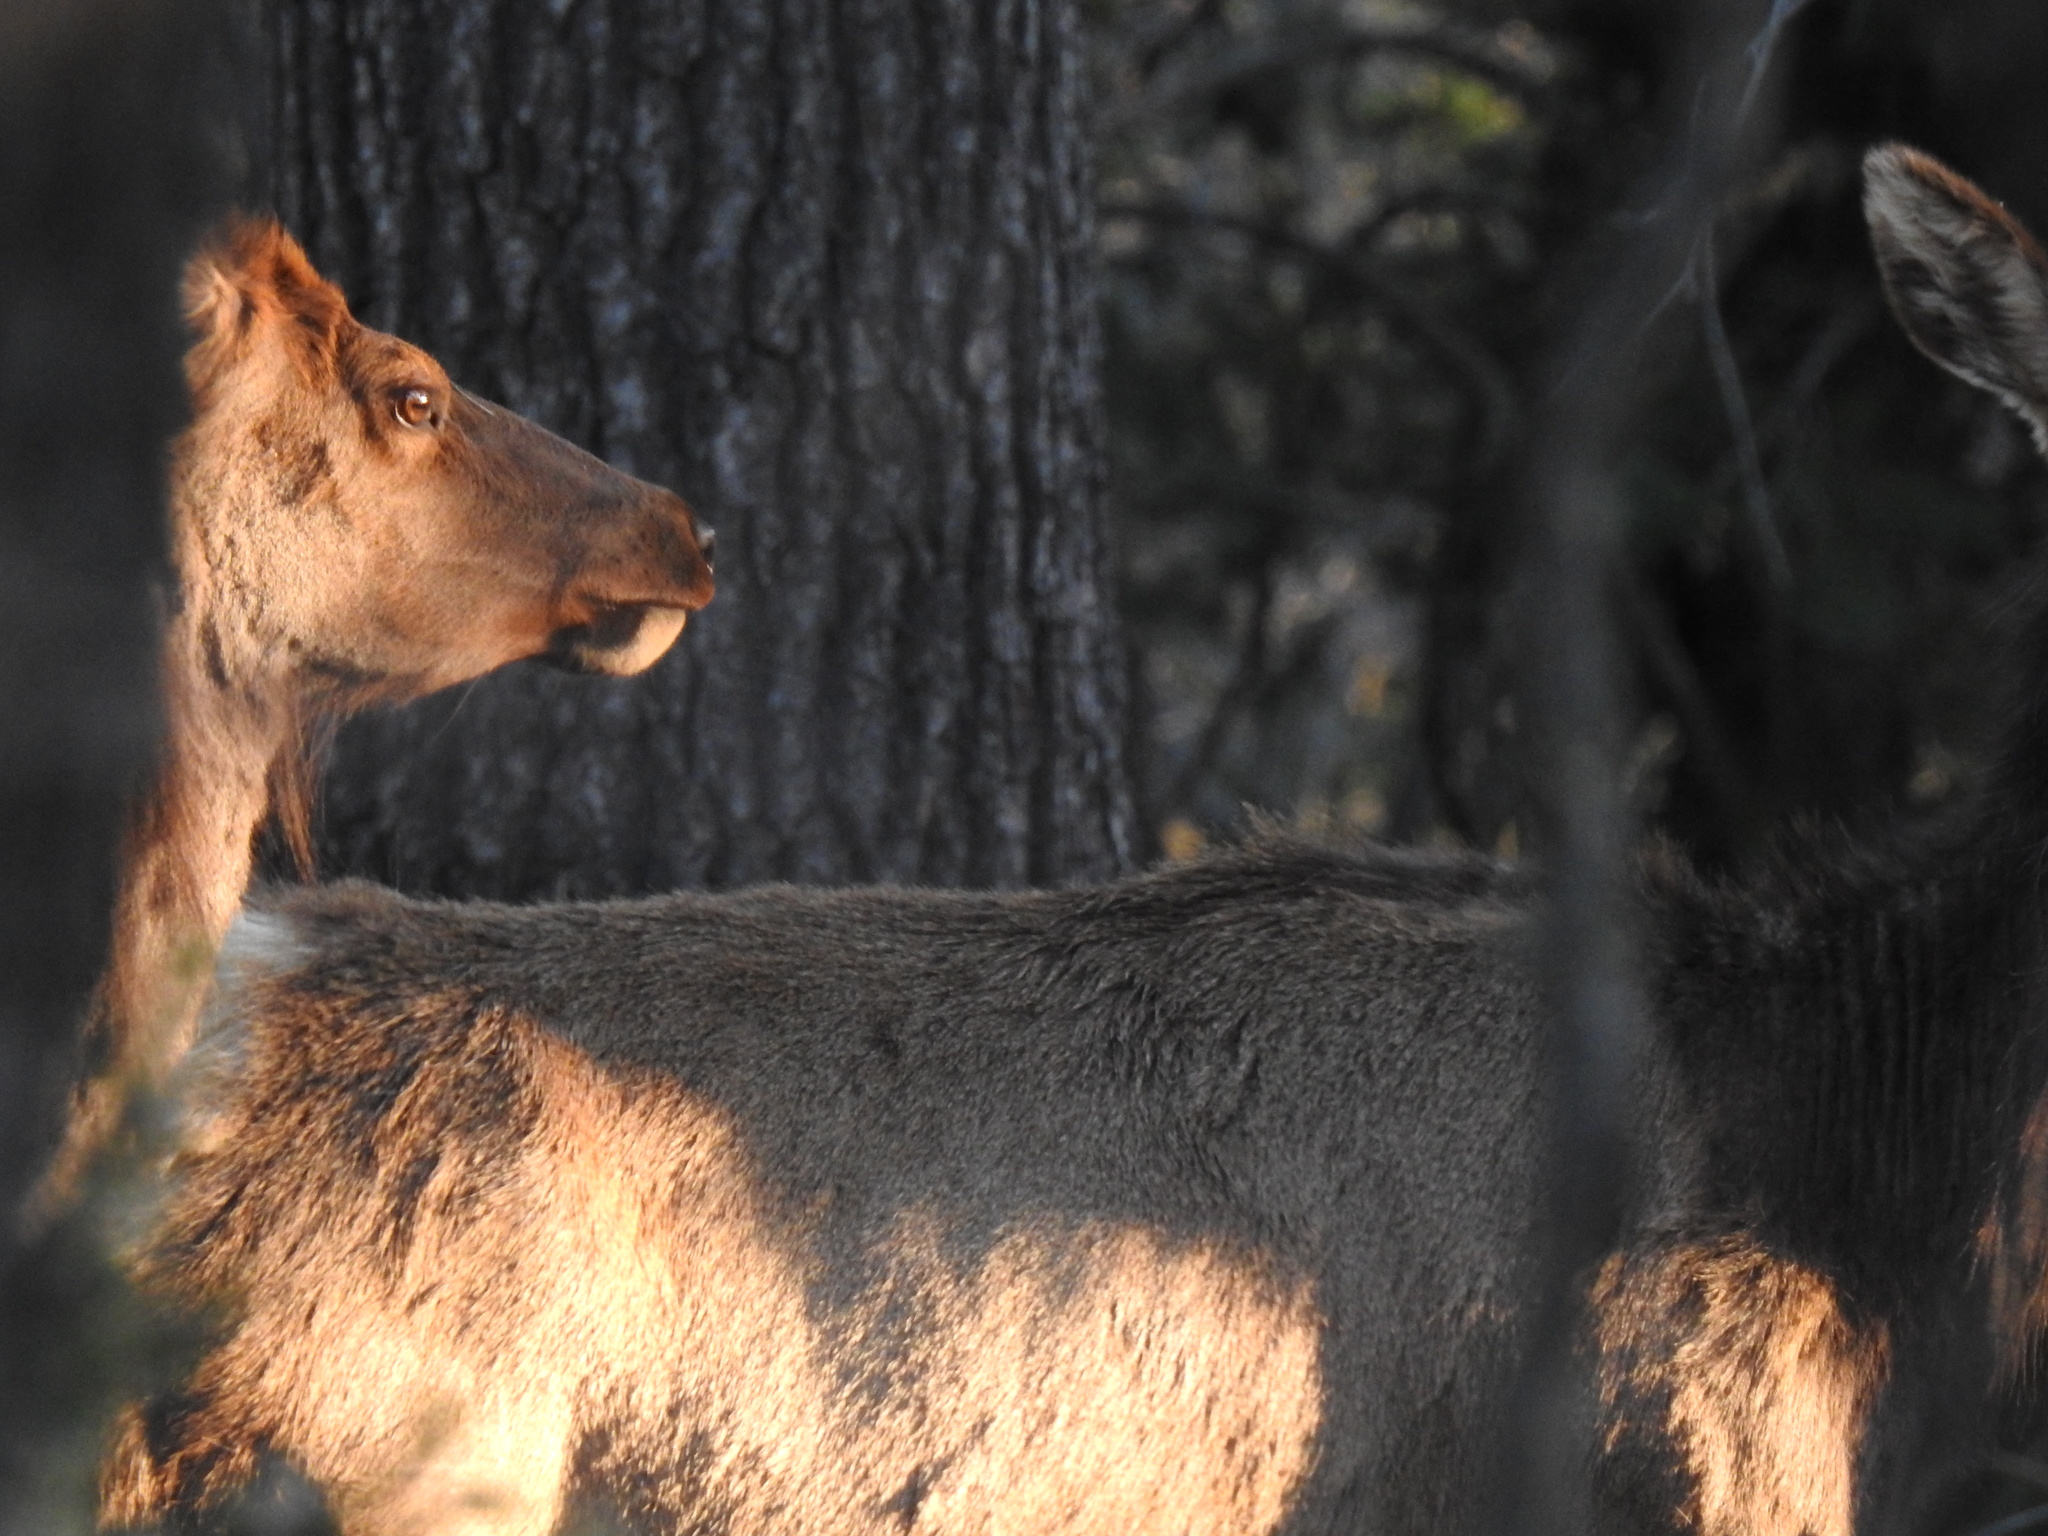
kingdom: Animalia
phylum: Chordata
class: Mammalia
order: Artiodactyla
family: Cervidae
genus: Cervus
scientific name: Cervus elaphus
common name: Red deer
